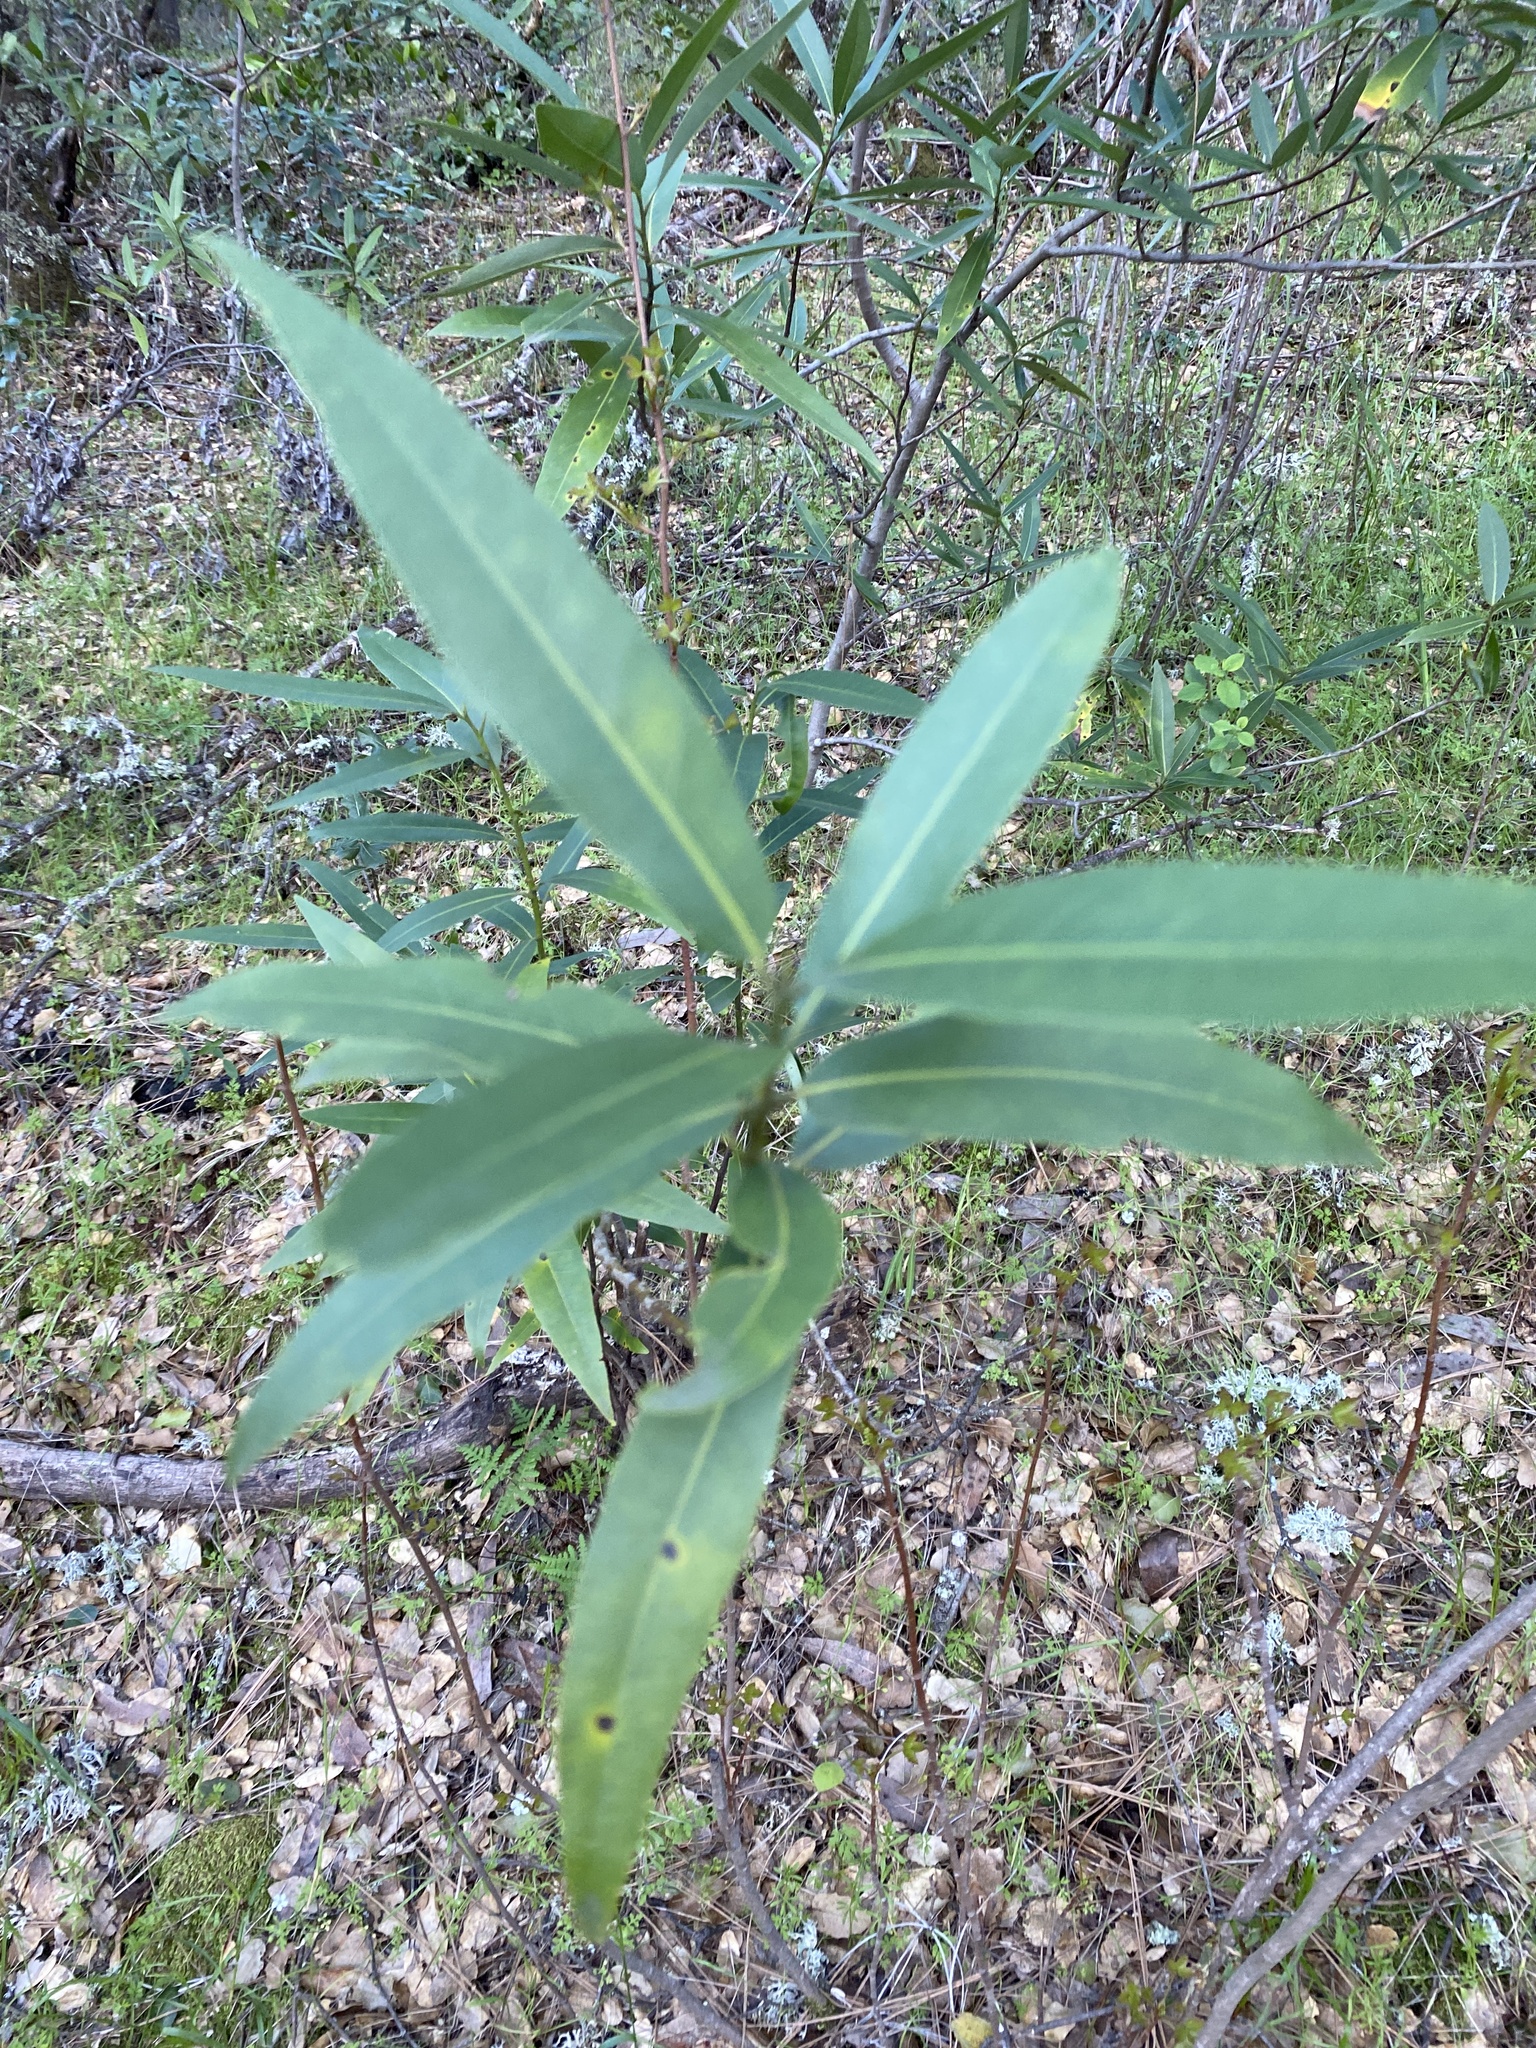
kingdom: Plantae
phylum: Tracheophyta
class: Magnoliopsida
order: Laurales
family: Lauraceae
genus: Umbellularia
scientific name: Umbellularia californica
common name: California bay
